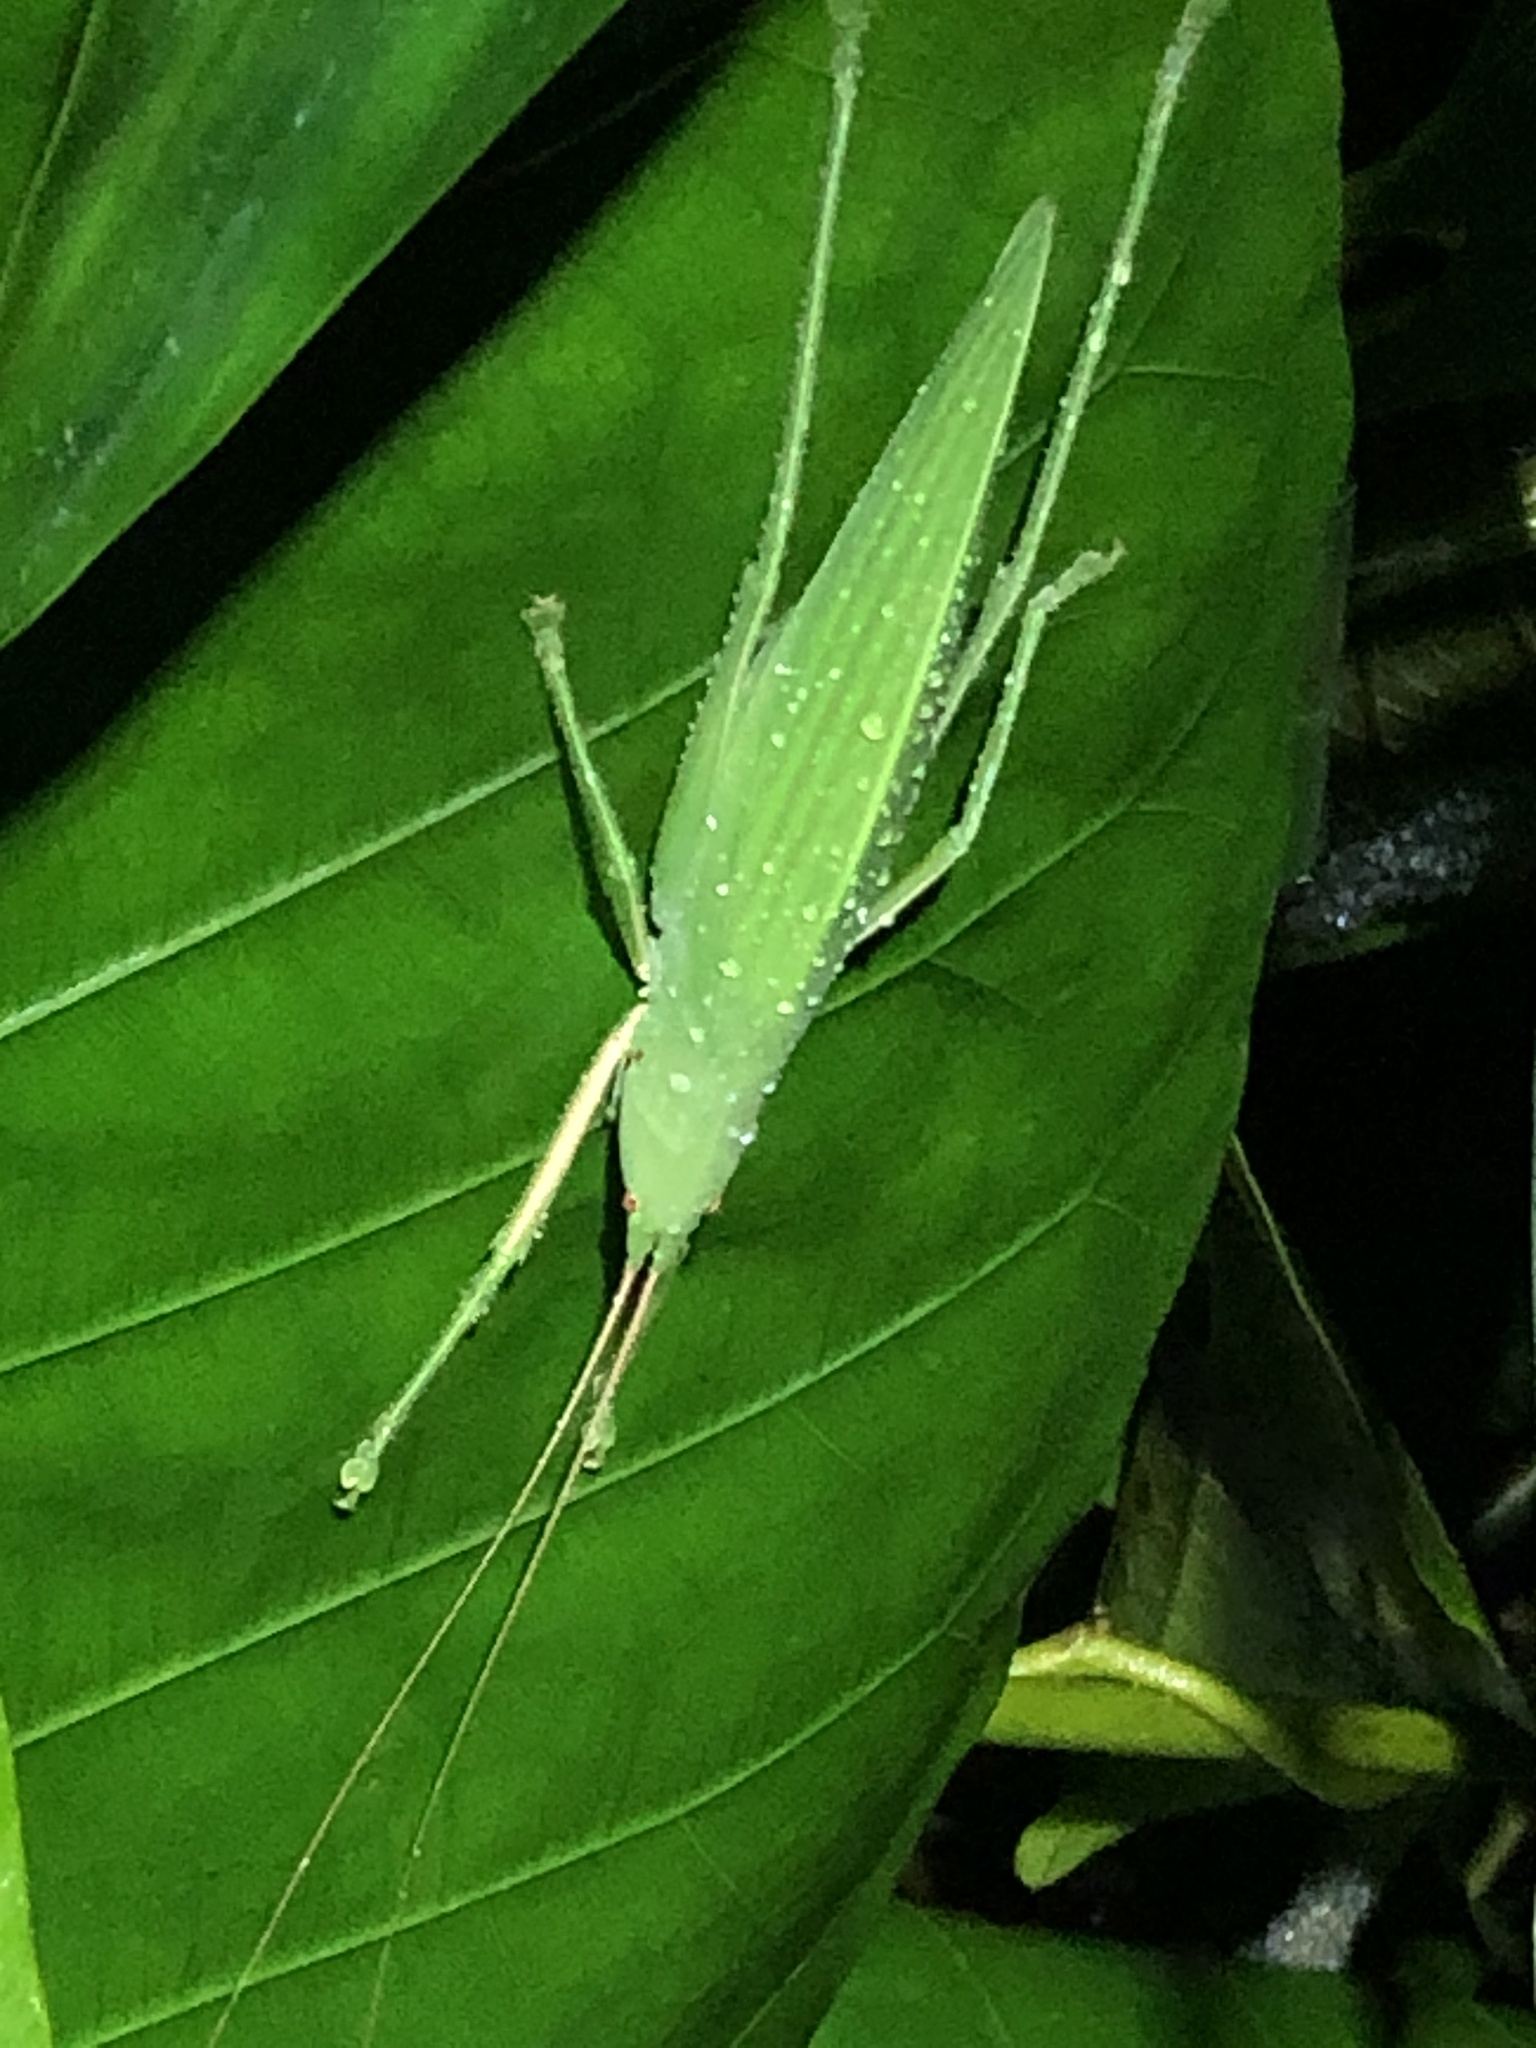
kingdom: Animalia
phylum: Arthropoda
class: Insecta
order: Orthoptera
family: Tettigoniidae
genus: Rhabdotophyllum
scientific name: Rhabdotophyllum acutipenne
